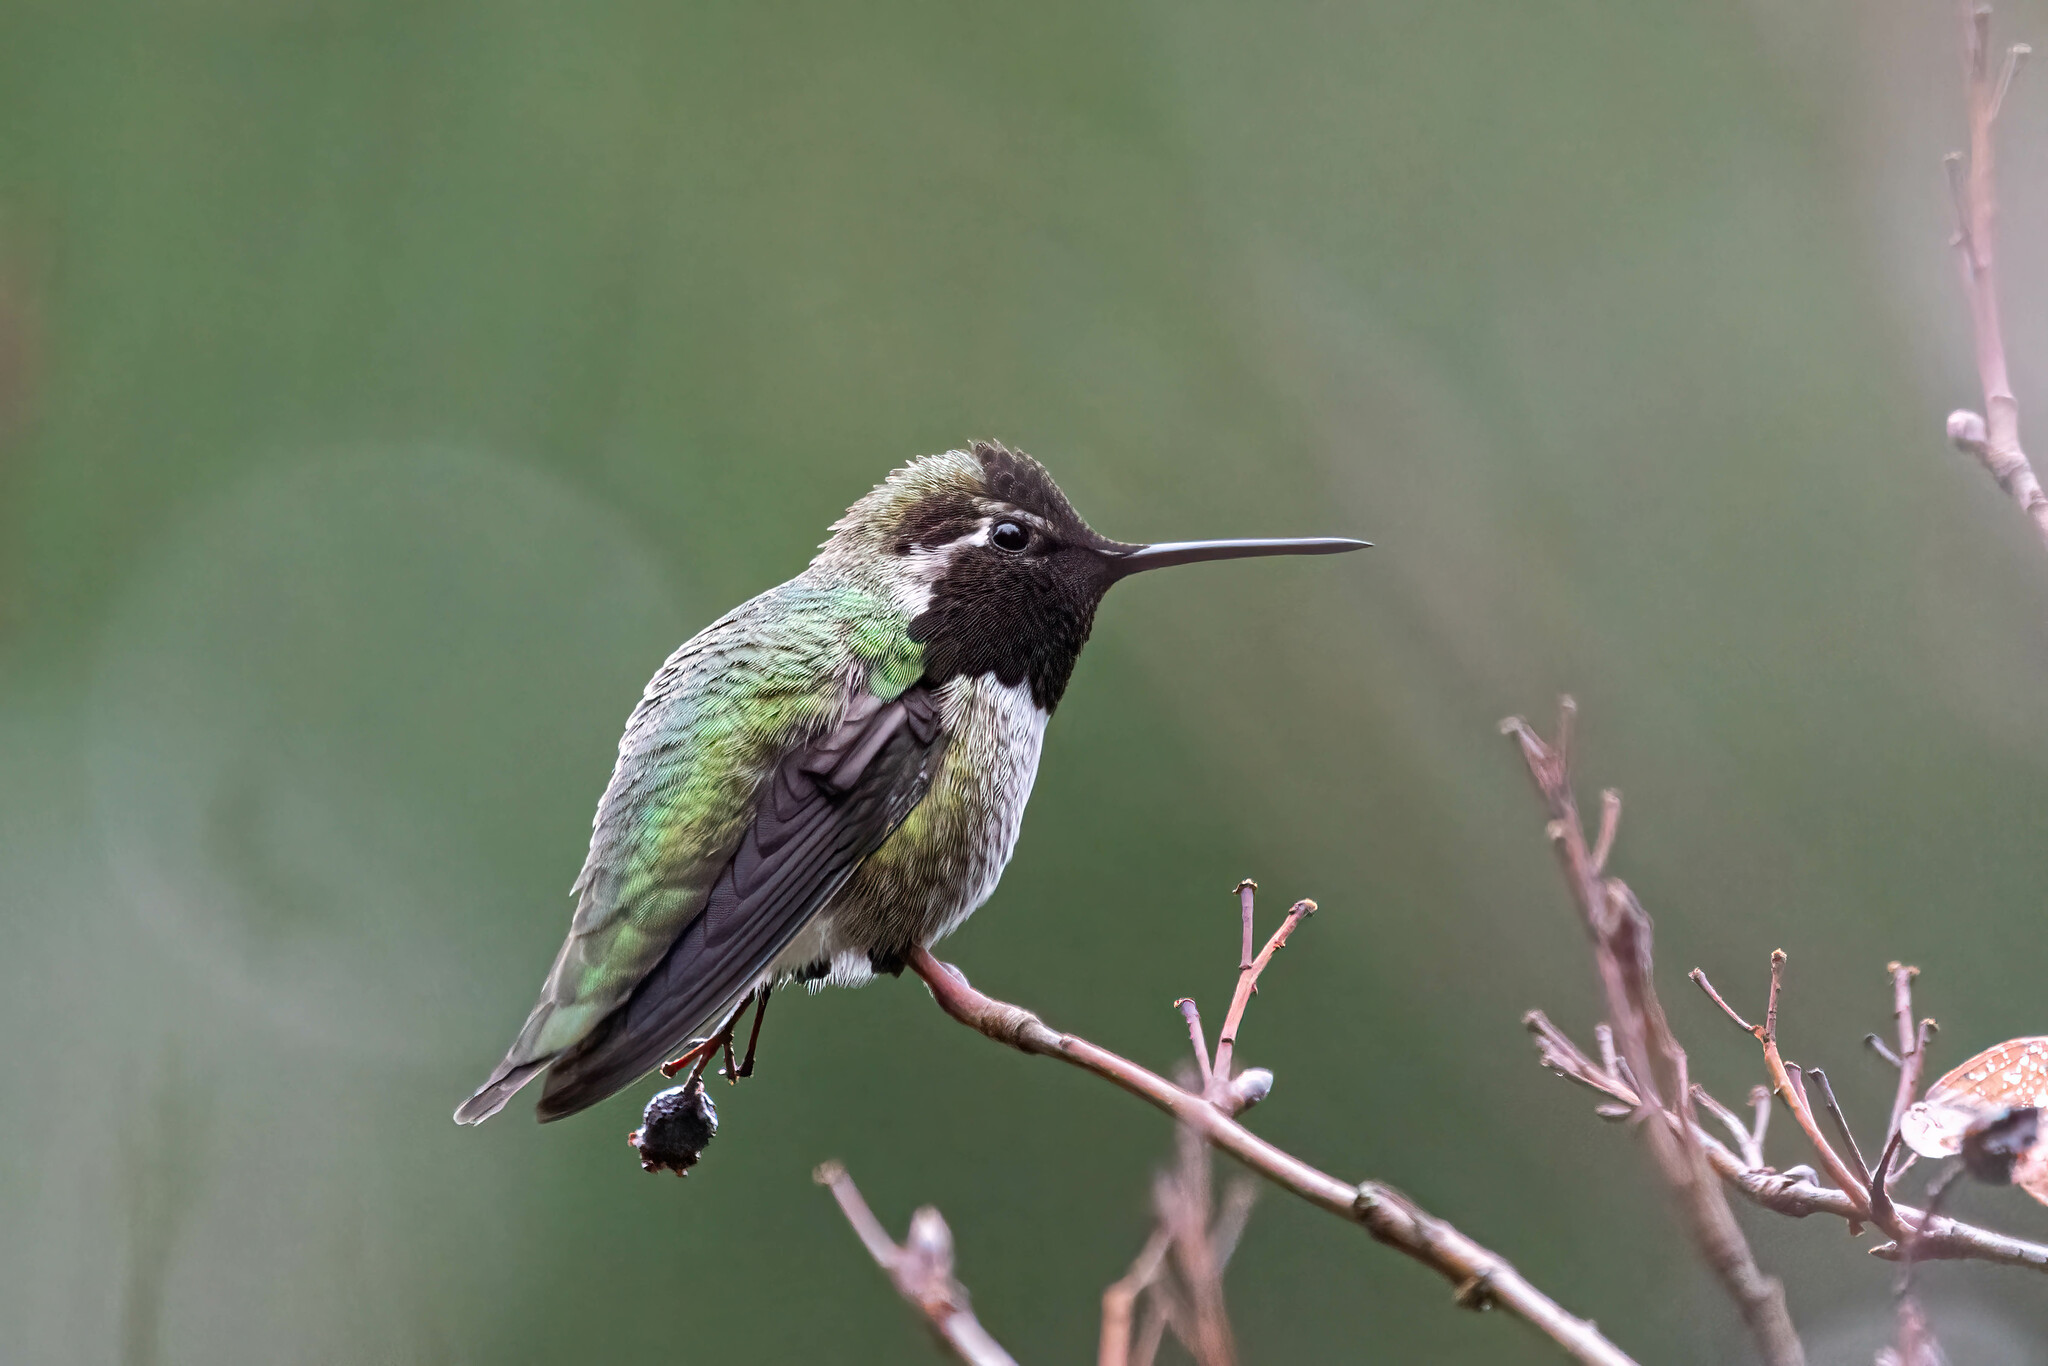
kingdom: Animalia
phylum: Chordata
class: Aves
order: Apodiformes
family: Trochilidae
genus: Calypte
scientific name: Calypte anna
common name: Anna's hummingbird
